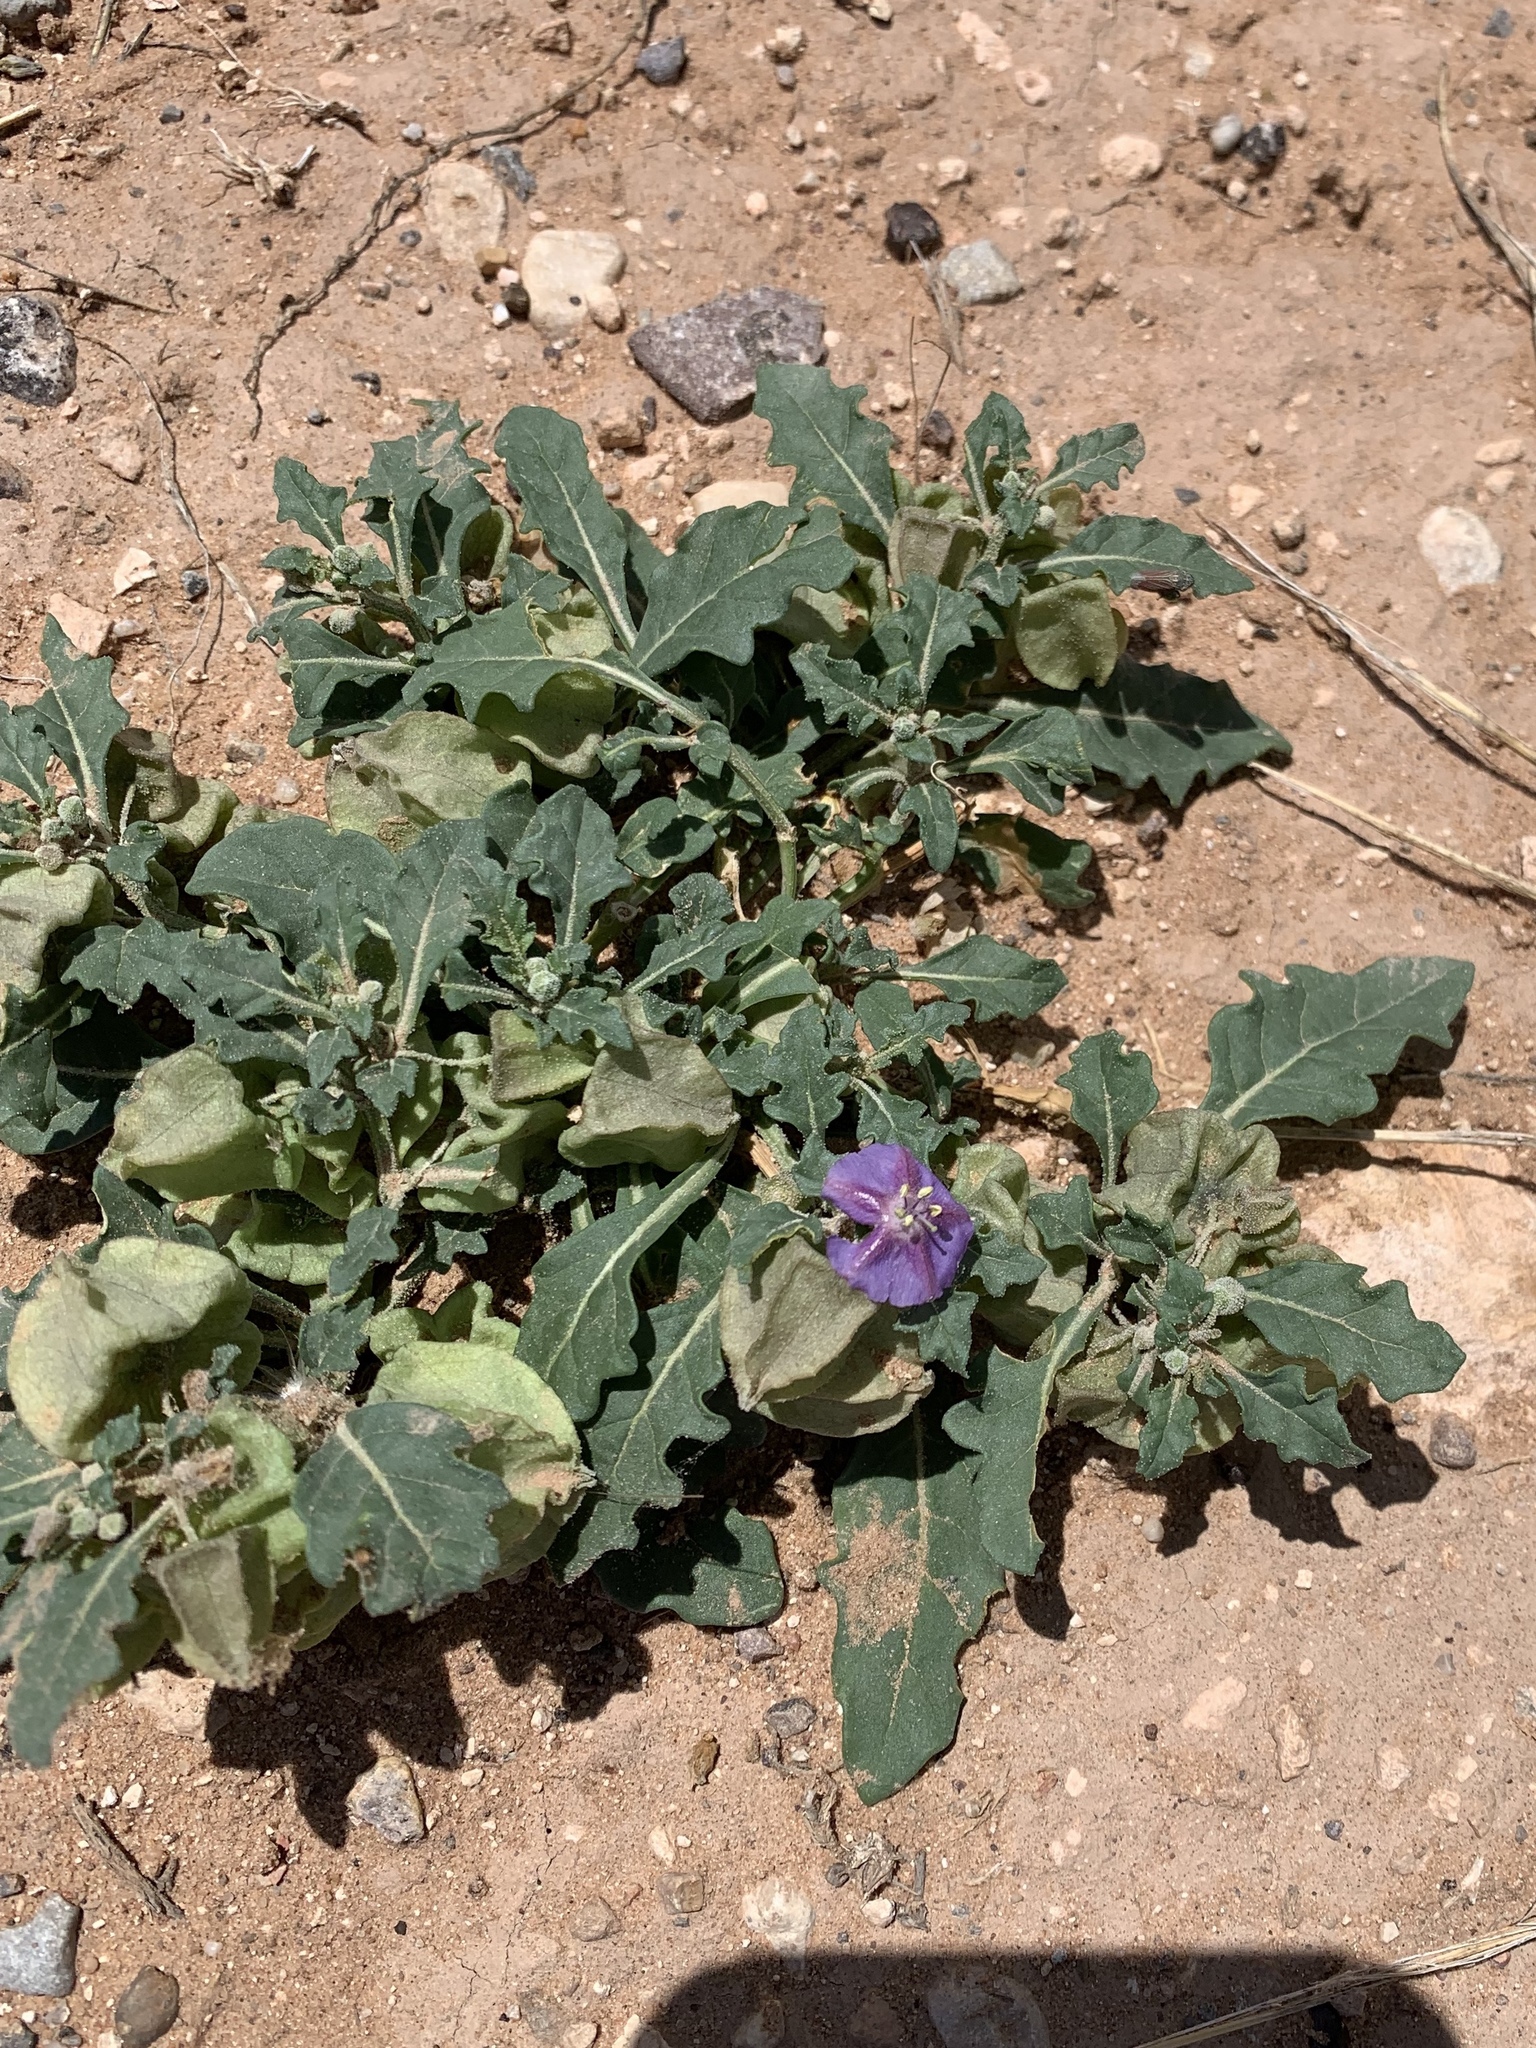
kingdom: Plantae
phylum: Tracheophyta
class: Magnoliopsida
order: Solanales
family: Solanaceae
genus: Quincula
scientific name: Quincula lobata
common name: Purple-ground-cherry
